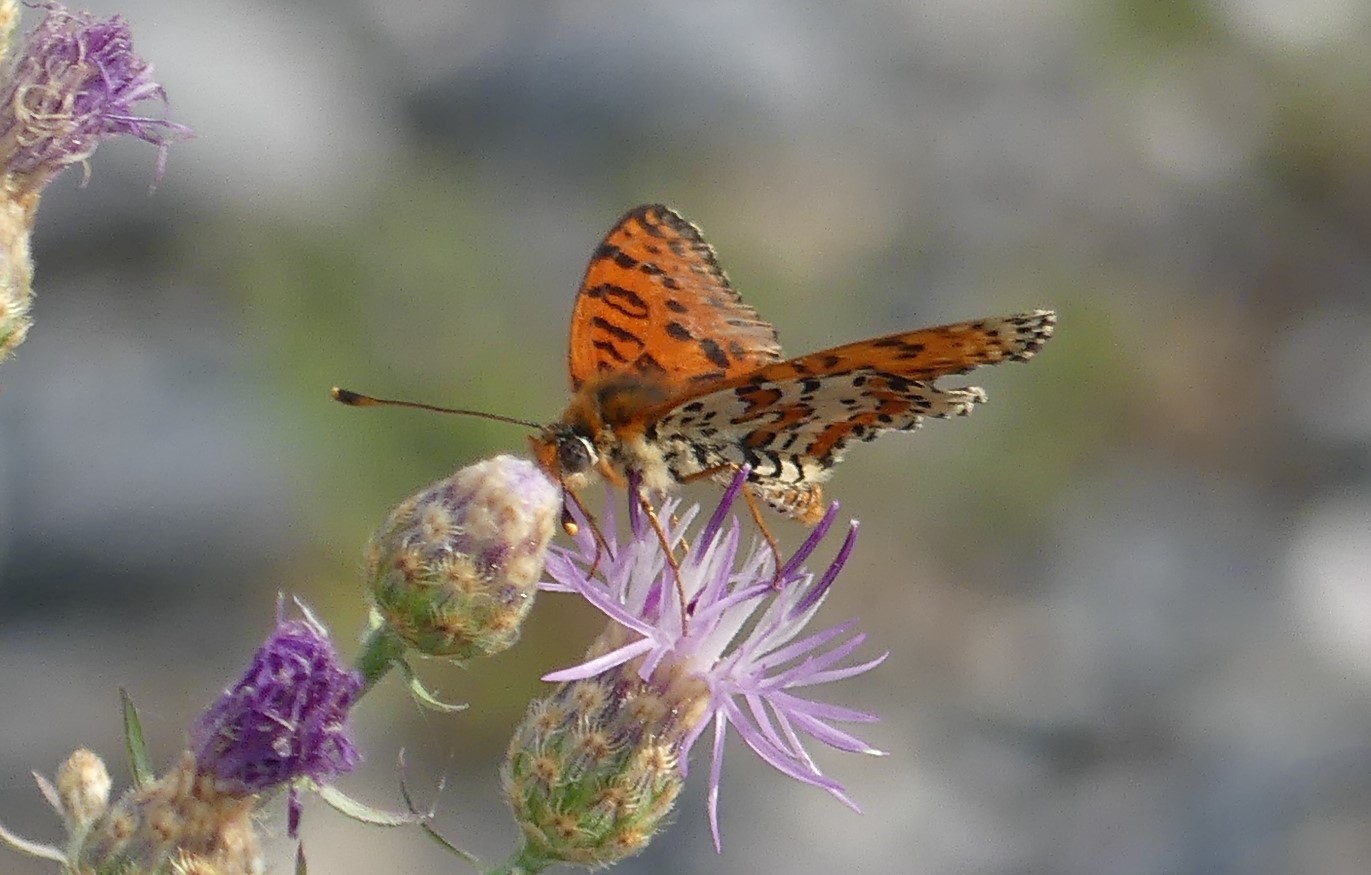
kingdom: Animalia
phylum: Arthropoda
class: Insecta
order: Lepidoptera
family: Nymphalidae
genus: Melitaea
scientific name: Melitaea didyma
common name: Spotted fritillary
